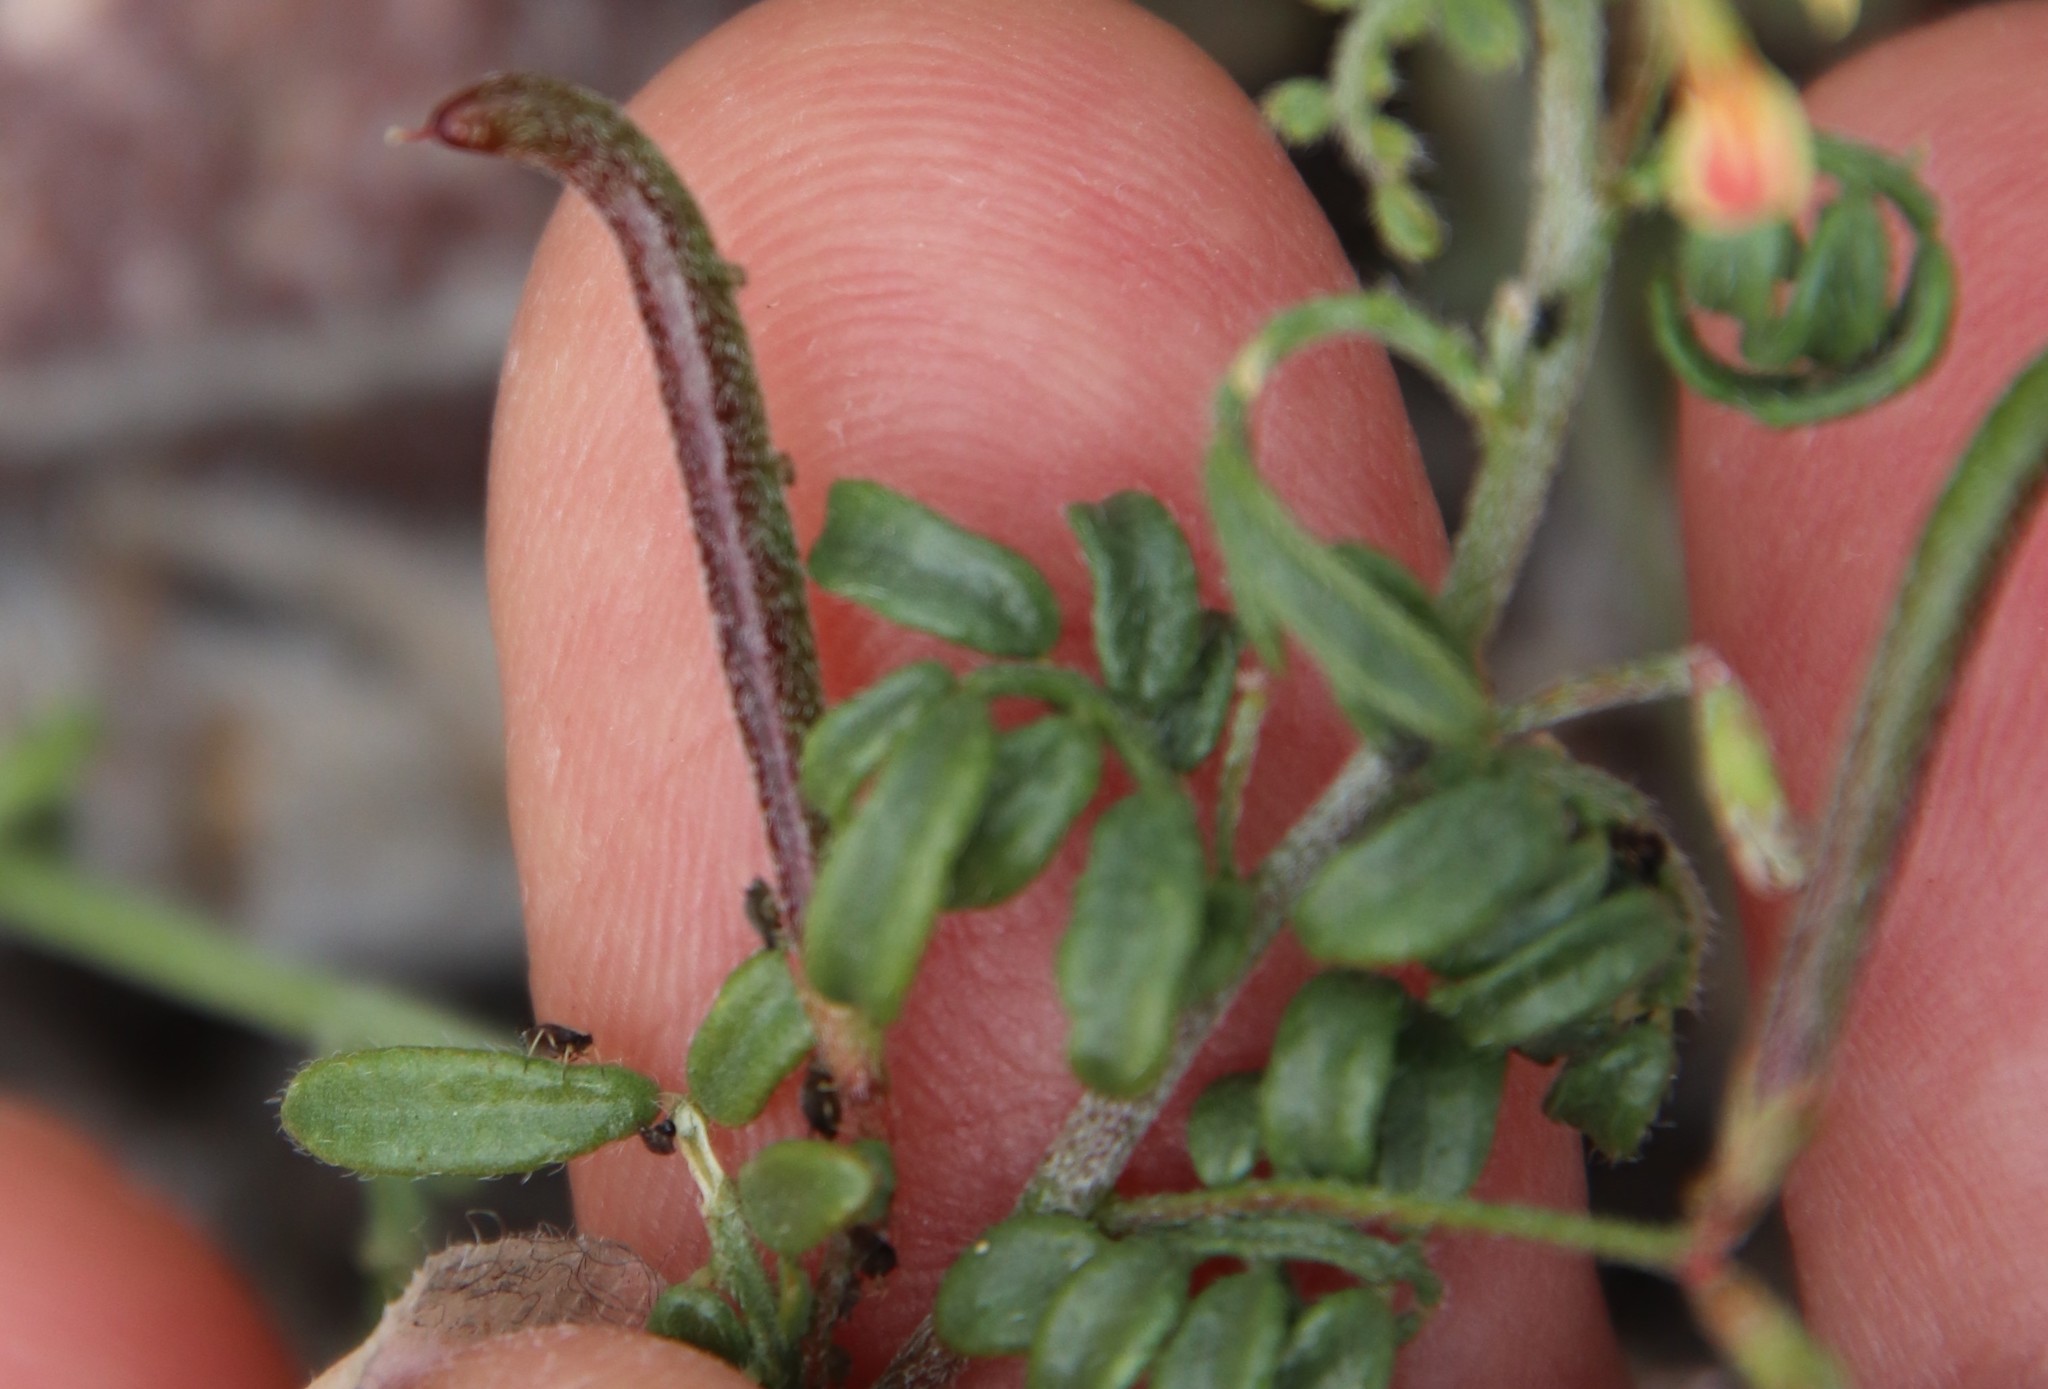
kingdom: Plantae
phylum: Tracheophyta
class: Magnoliopsida
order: Fabales
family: Fabaceae
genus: Acmispon
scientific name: Acmispon strigosus
